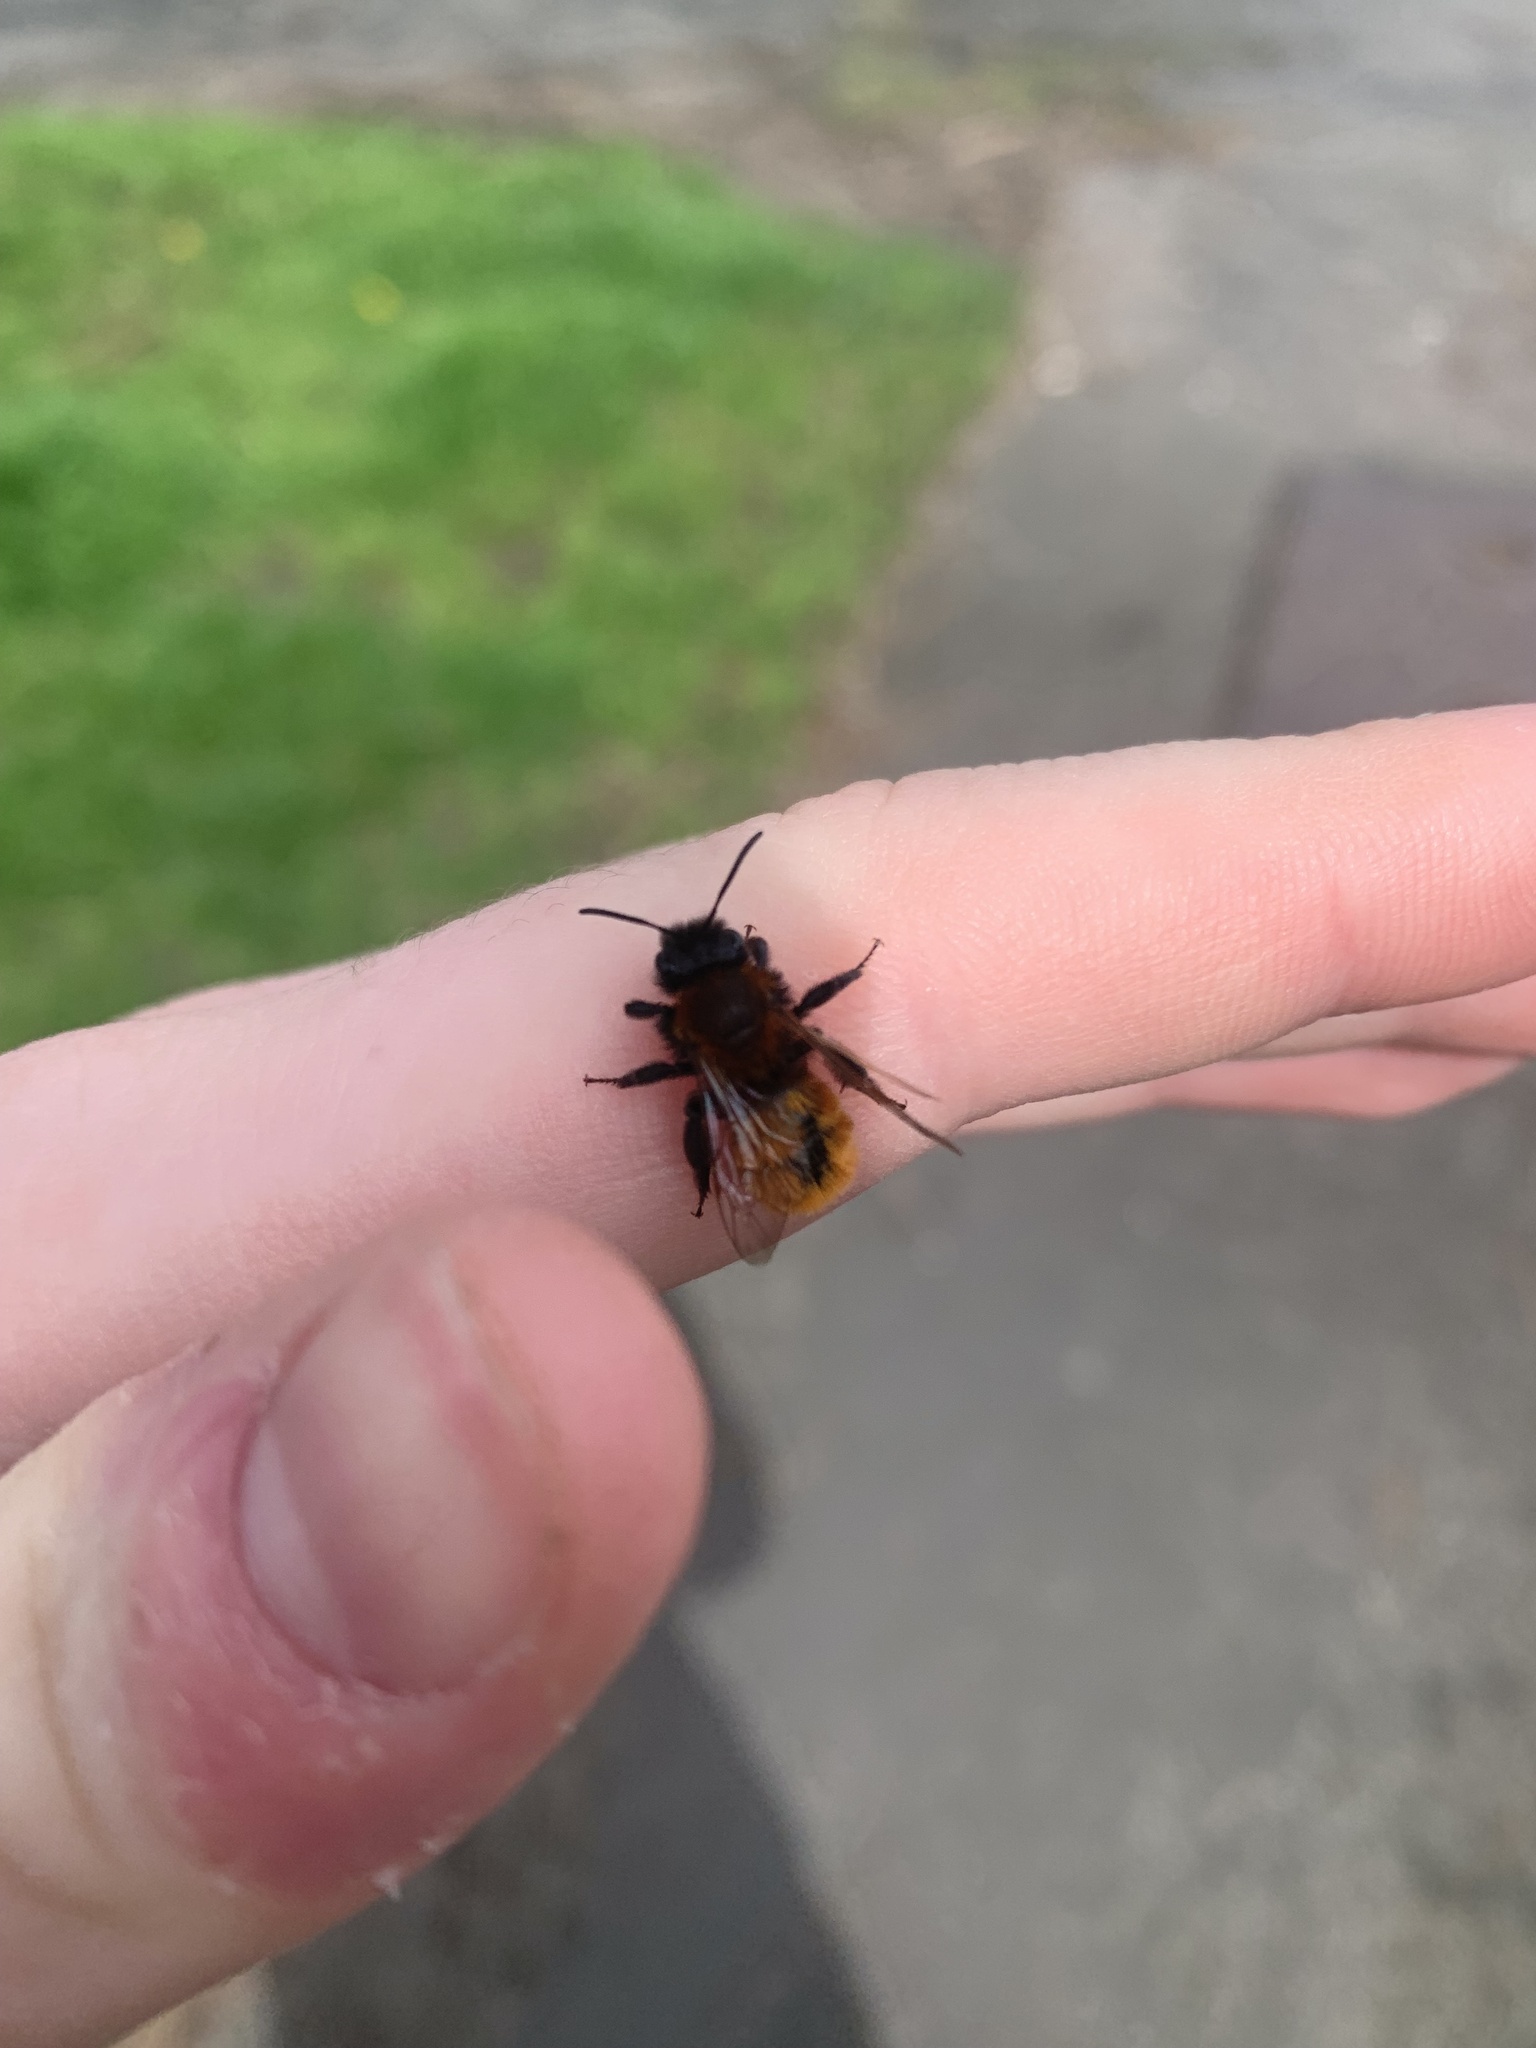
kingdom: Animalia
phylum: Arthropoda
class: Insecta
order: Hymenoptera
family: Andrenidae
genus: Andrena
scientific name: Andrena fulva
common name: Tawny mining bee
